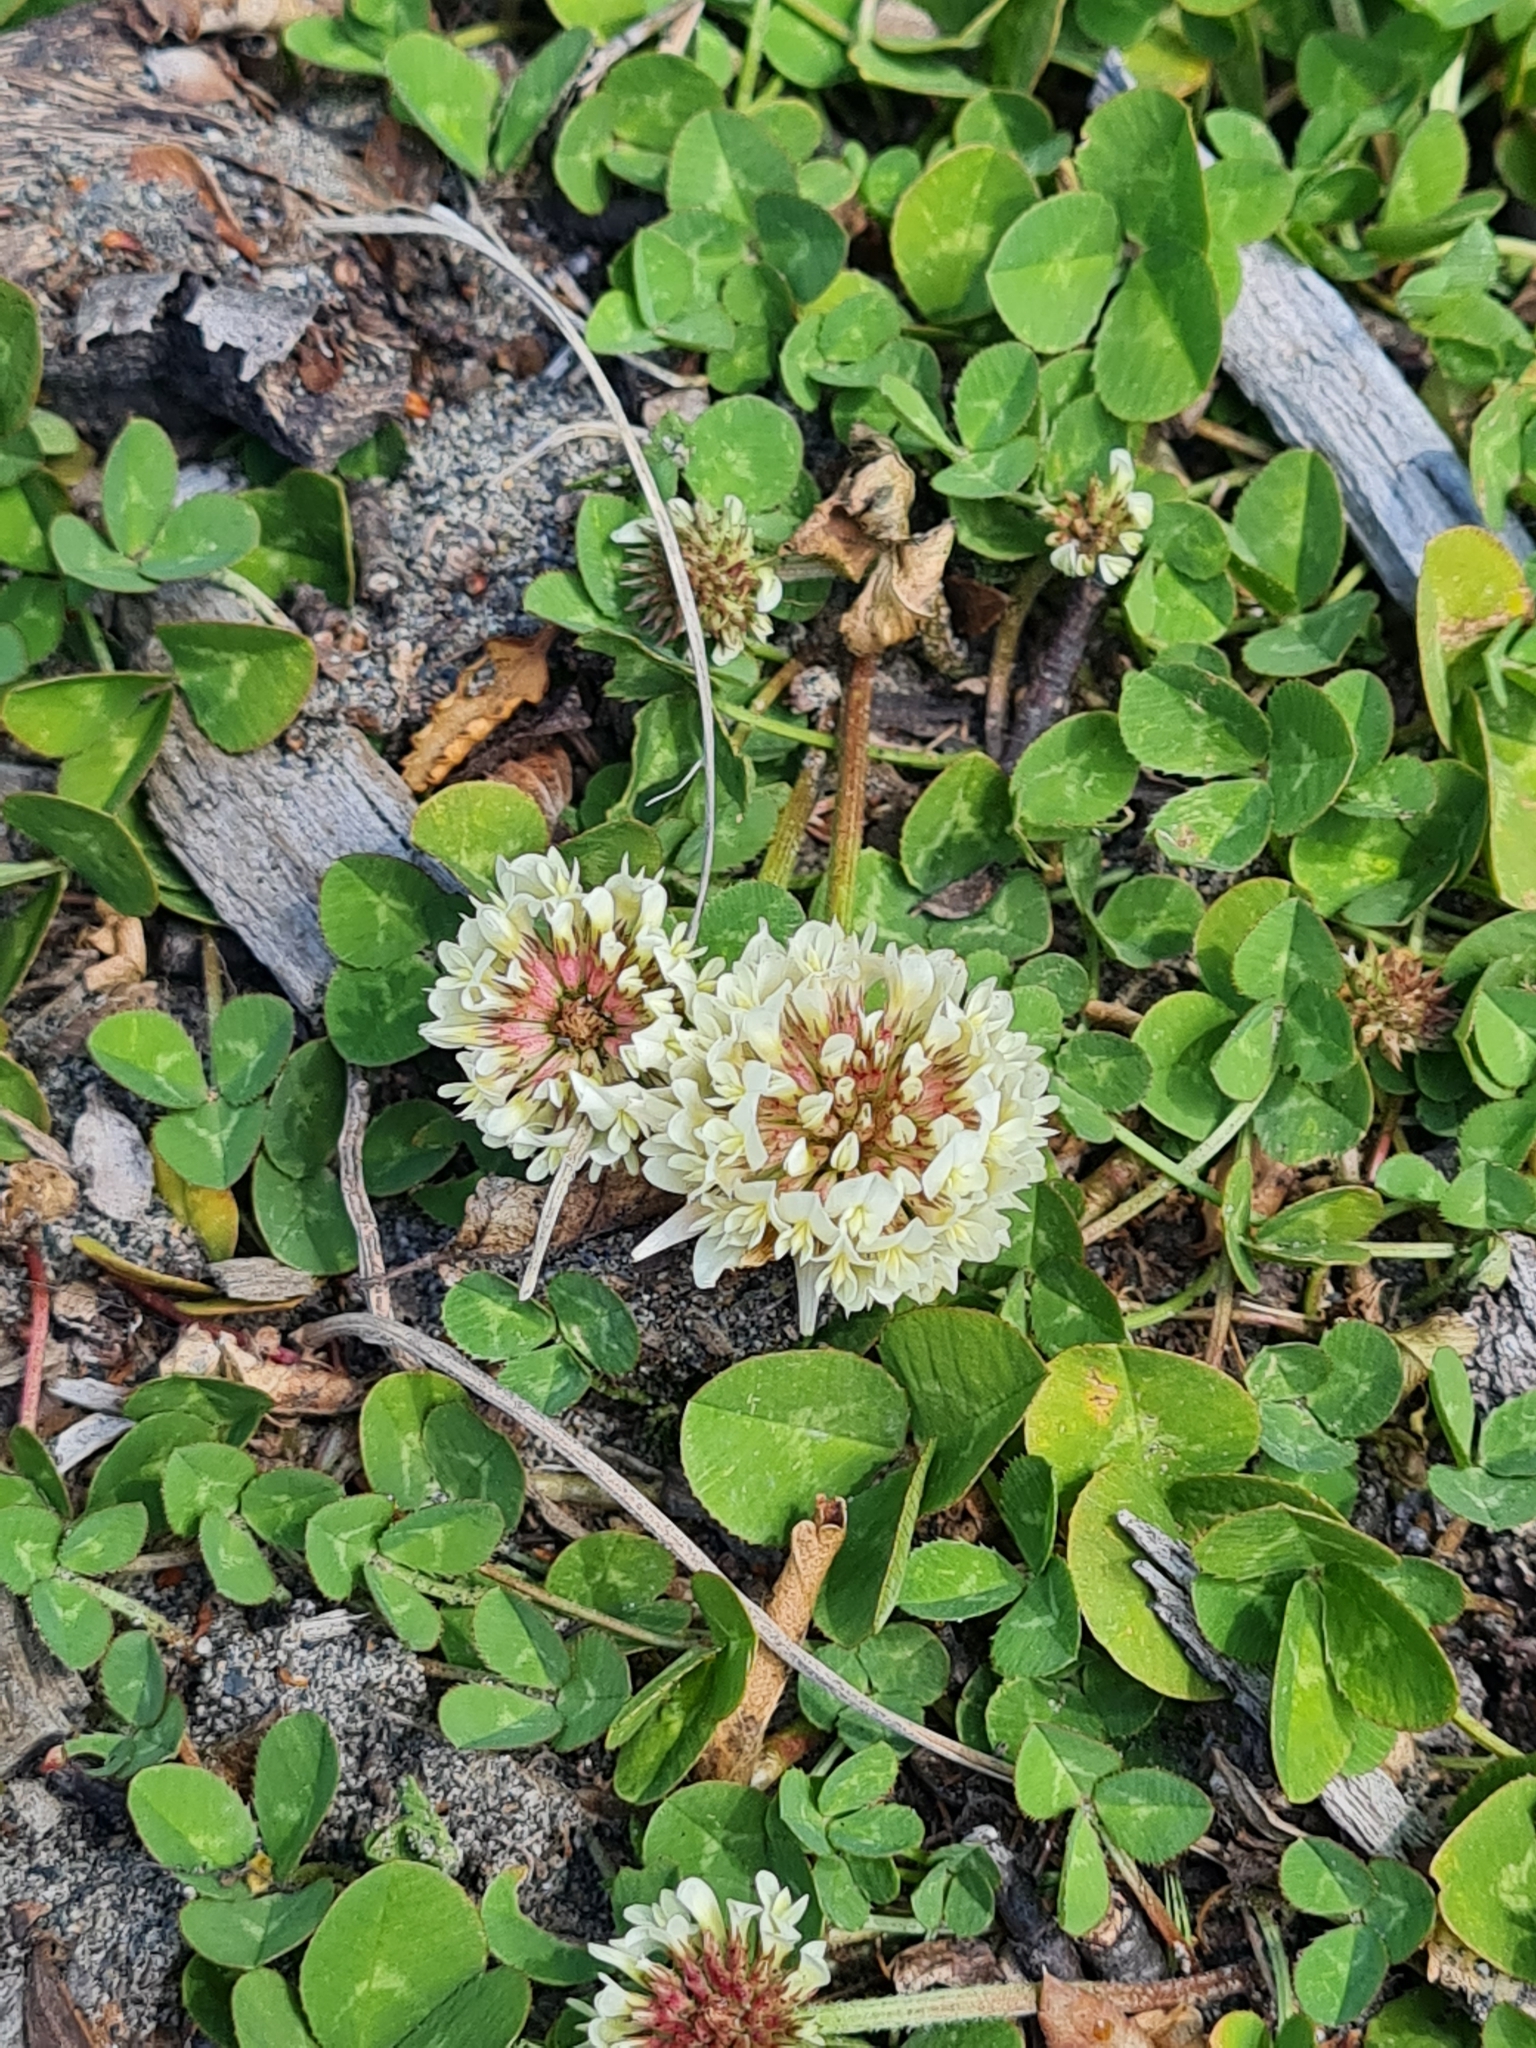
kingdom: Plantae
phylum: Tracheophyta
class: Magnoliopsida
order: Fabales
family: Fabaceae
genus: Trifolium
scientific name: Trifolium repens
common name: White clover
